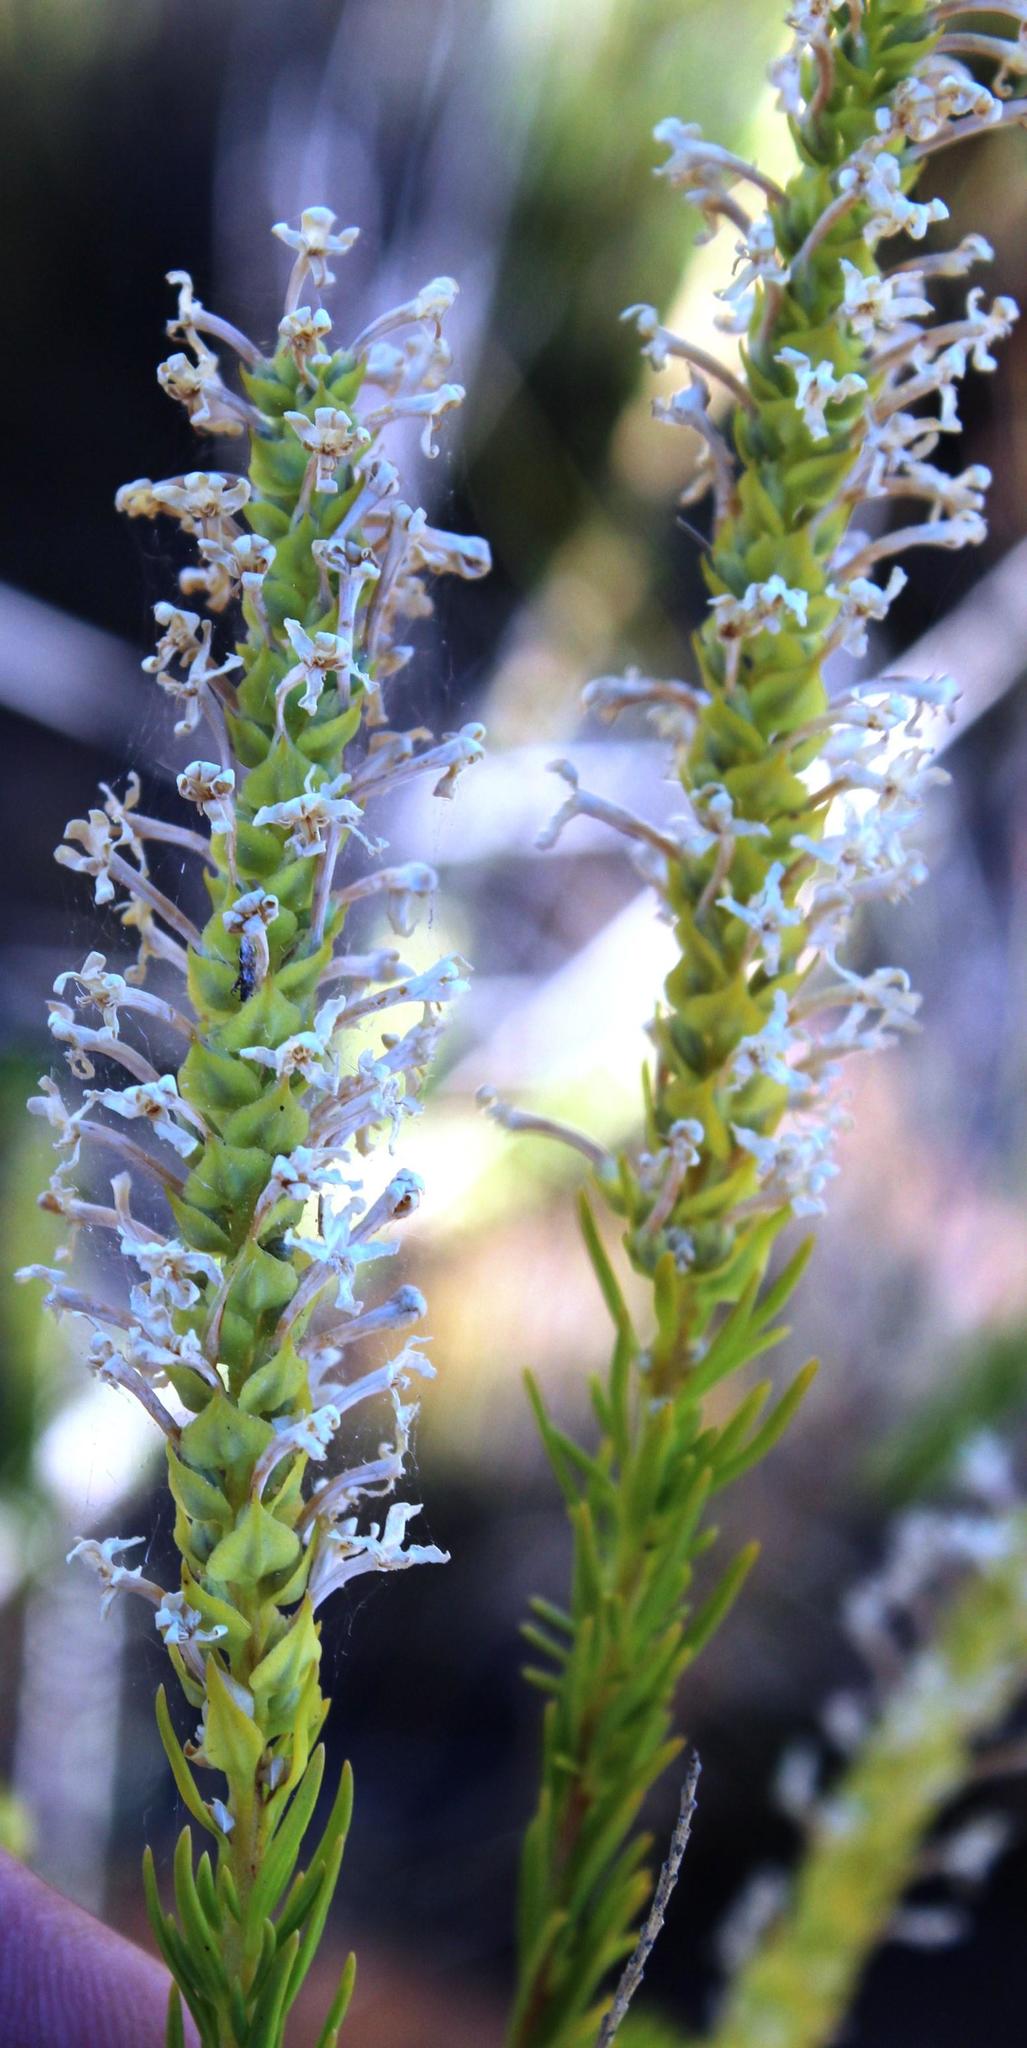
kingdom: Plantae
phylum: Tracheophyta
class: Magnoliopsida
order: Lamiales
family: Scrophulariaceae
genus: Microdon
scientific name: Microdon polygaloides
